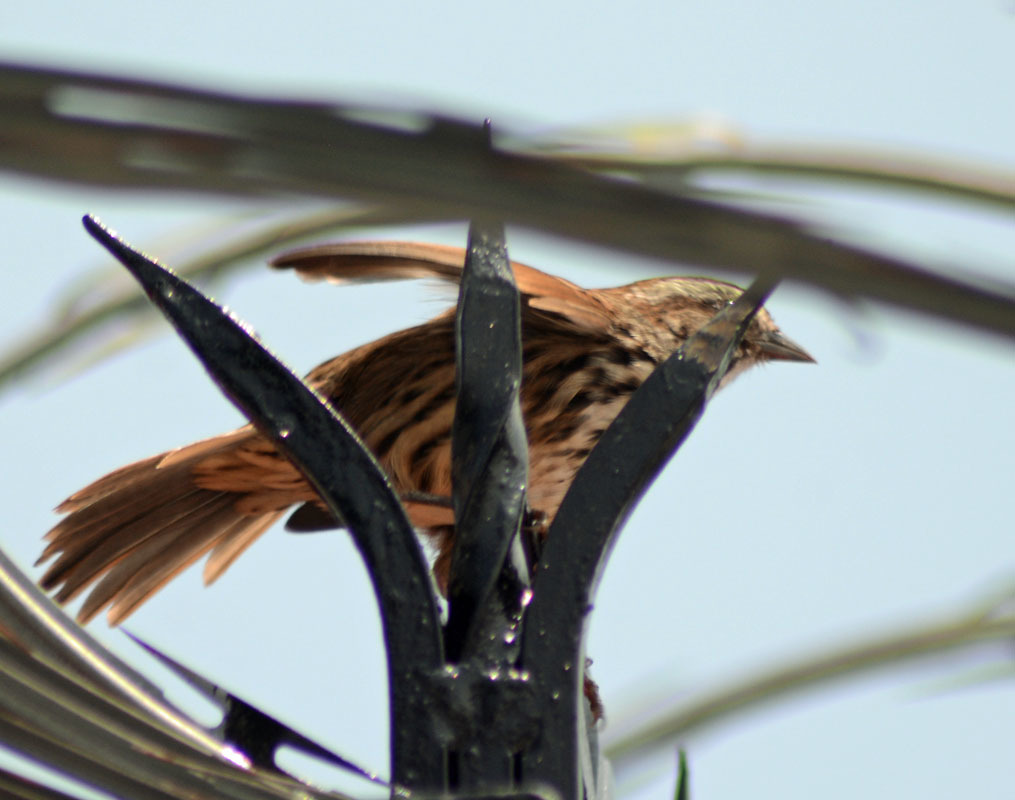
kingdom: Animalia
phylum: Chordata
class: Aves
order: Passeriformes
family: Passerellidae
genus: Melospiza
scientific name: Melospiza melodia
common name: Song sparrow
